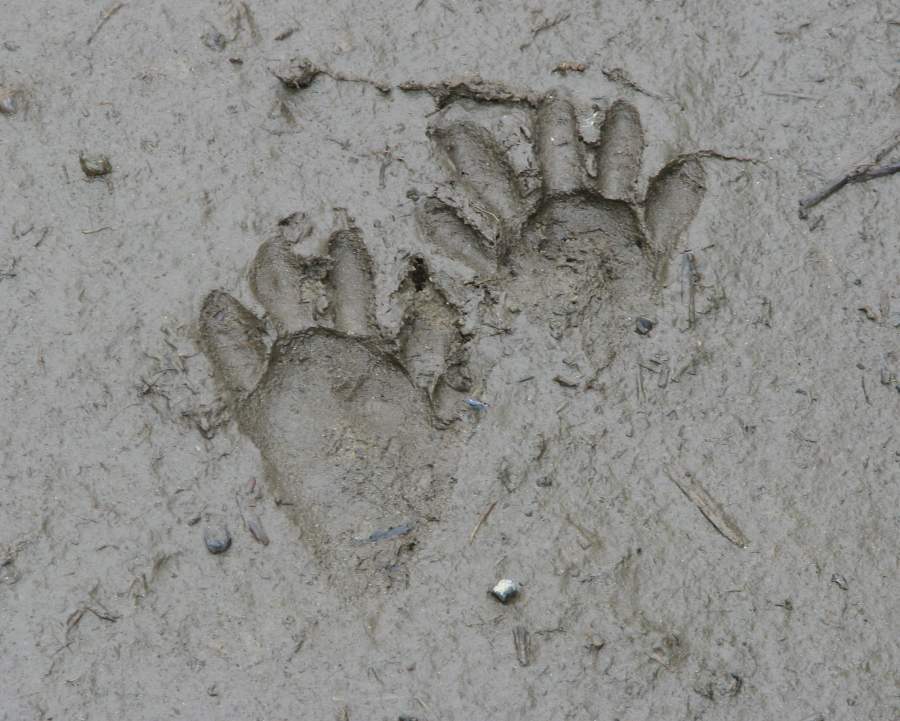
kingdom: Animalia
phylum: Chordata
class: Mammalia
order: Carnivora
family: Procyonidae
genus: Procyon
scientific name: Procyon lotor
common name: Raccoon
